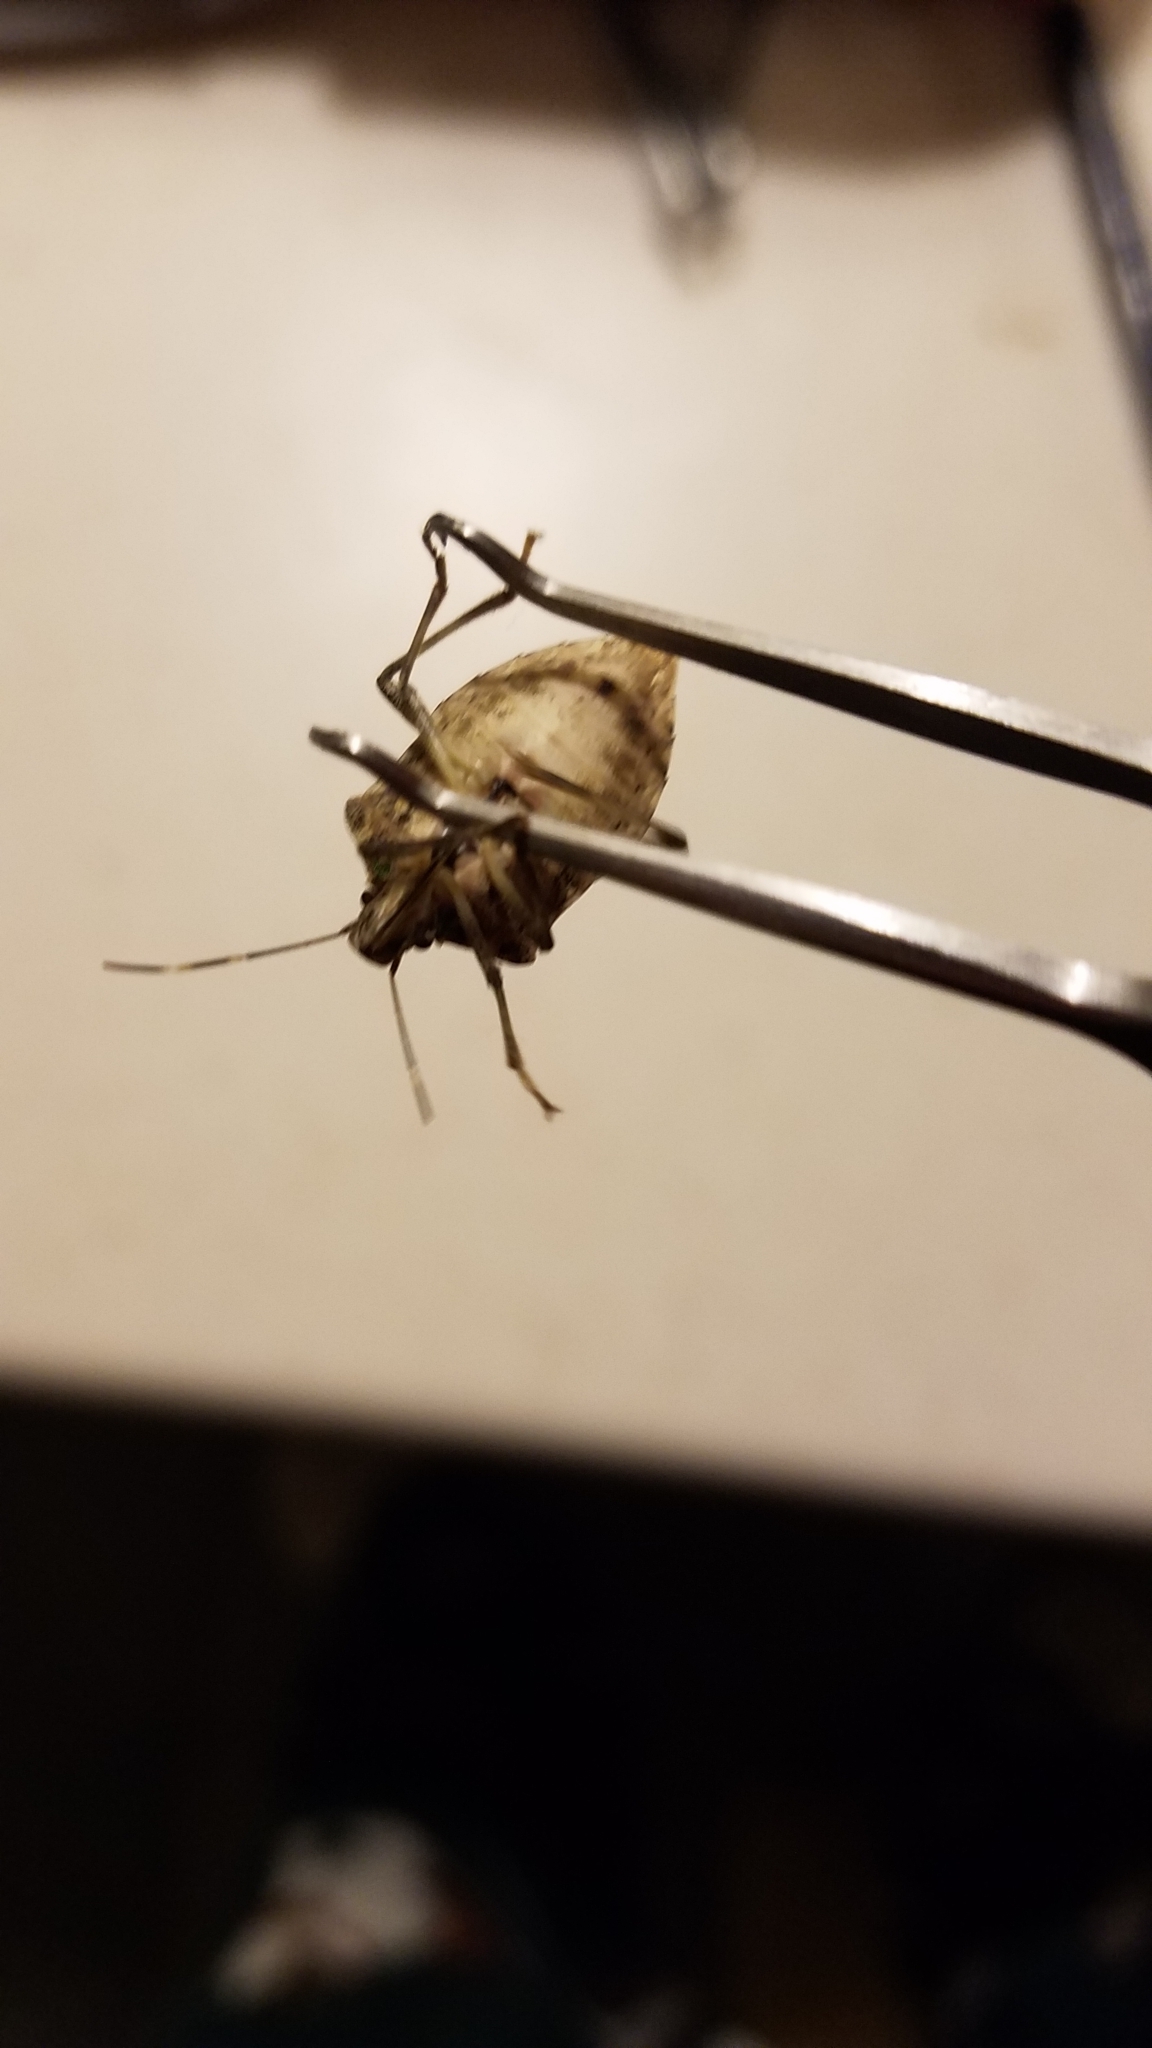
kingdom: Animalia
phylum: Arthropoda
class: Insecta
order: Hemiptera
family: Pentatomidae
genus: Halyomorpha
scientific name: Halyomorpha halys
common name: Brown marmorated stink bug
